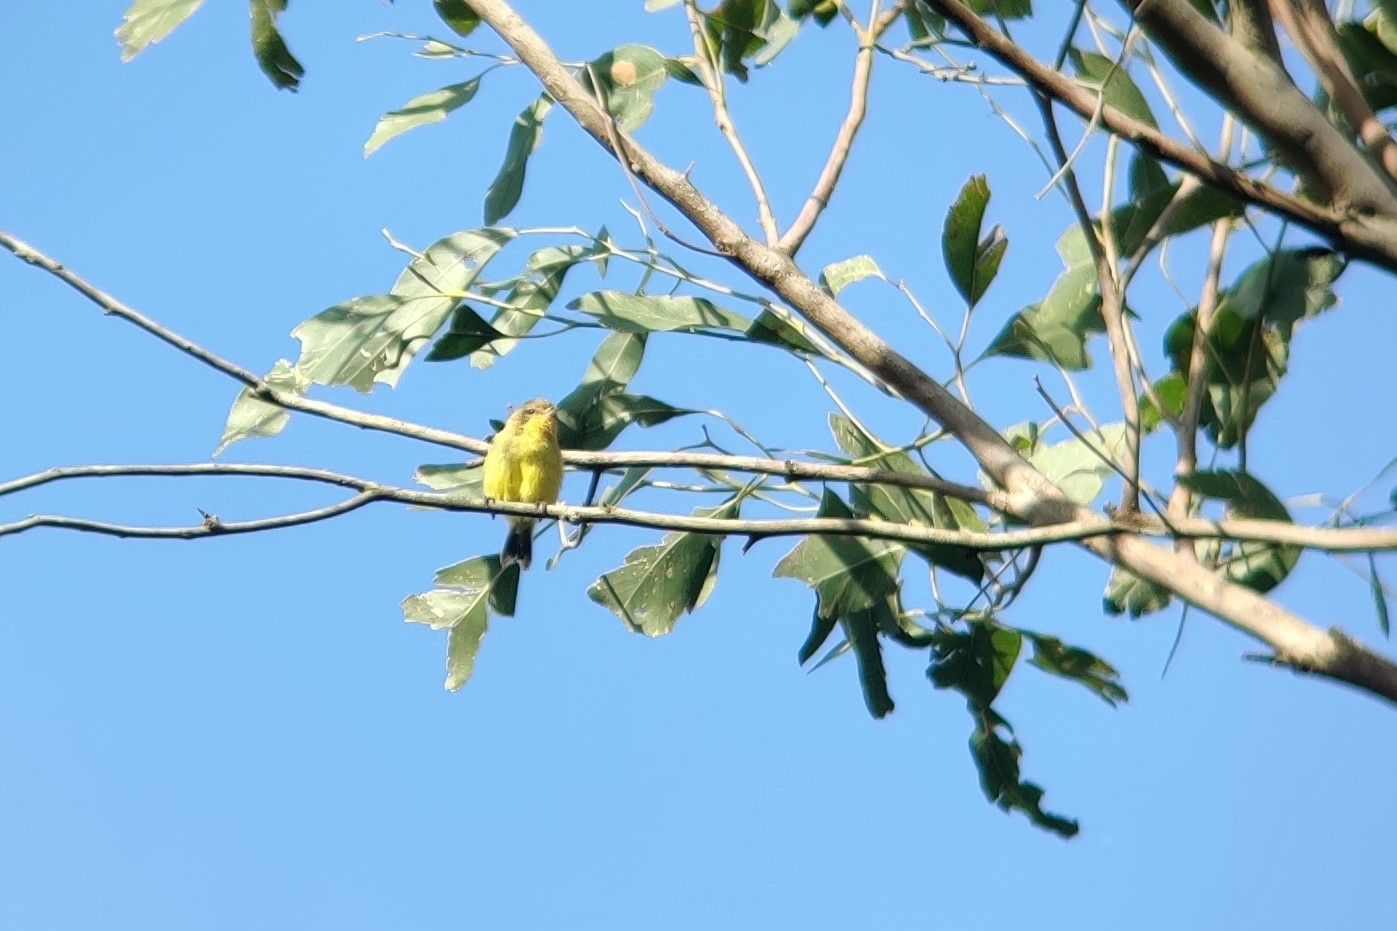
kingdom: Animalia
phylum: Chordata
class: Aves
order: Passeriformes
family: Acanthizidae
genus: Acanthiza
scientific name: Acanthiza nana
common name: Yellow thornbill
